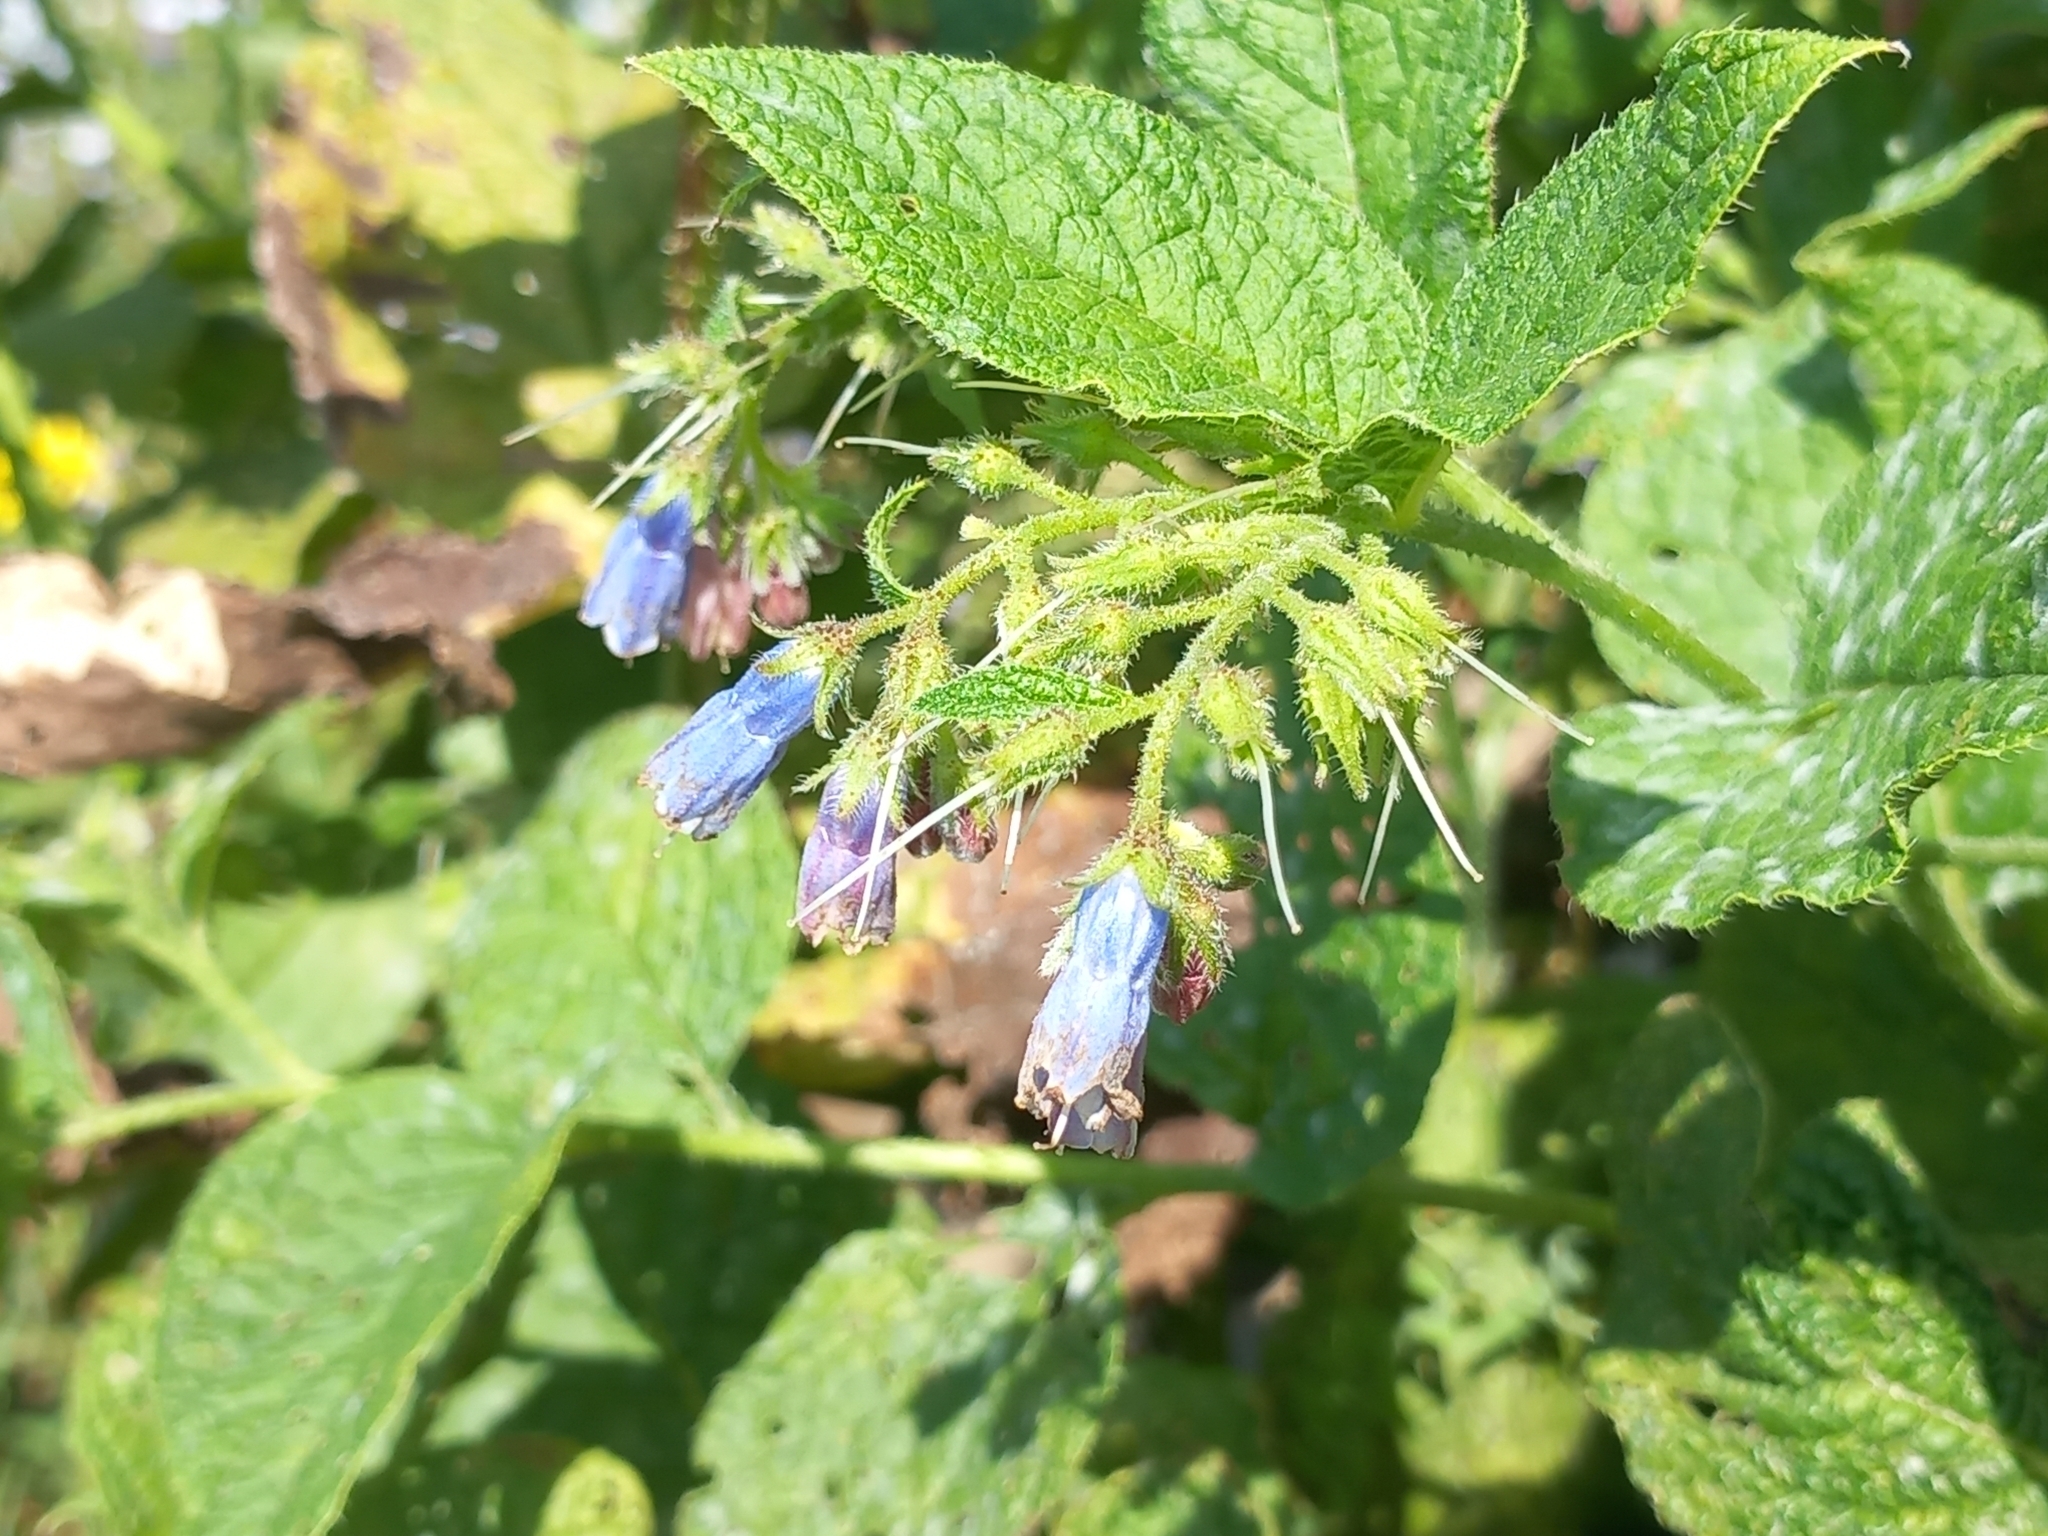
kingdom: Plantae
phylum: Tracheophyta
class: Magnoliopsida
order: Boraginales
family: Boraginaceae
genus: Symphytum
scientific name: Symphytum asperum
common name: Prickly comfrey
